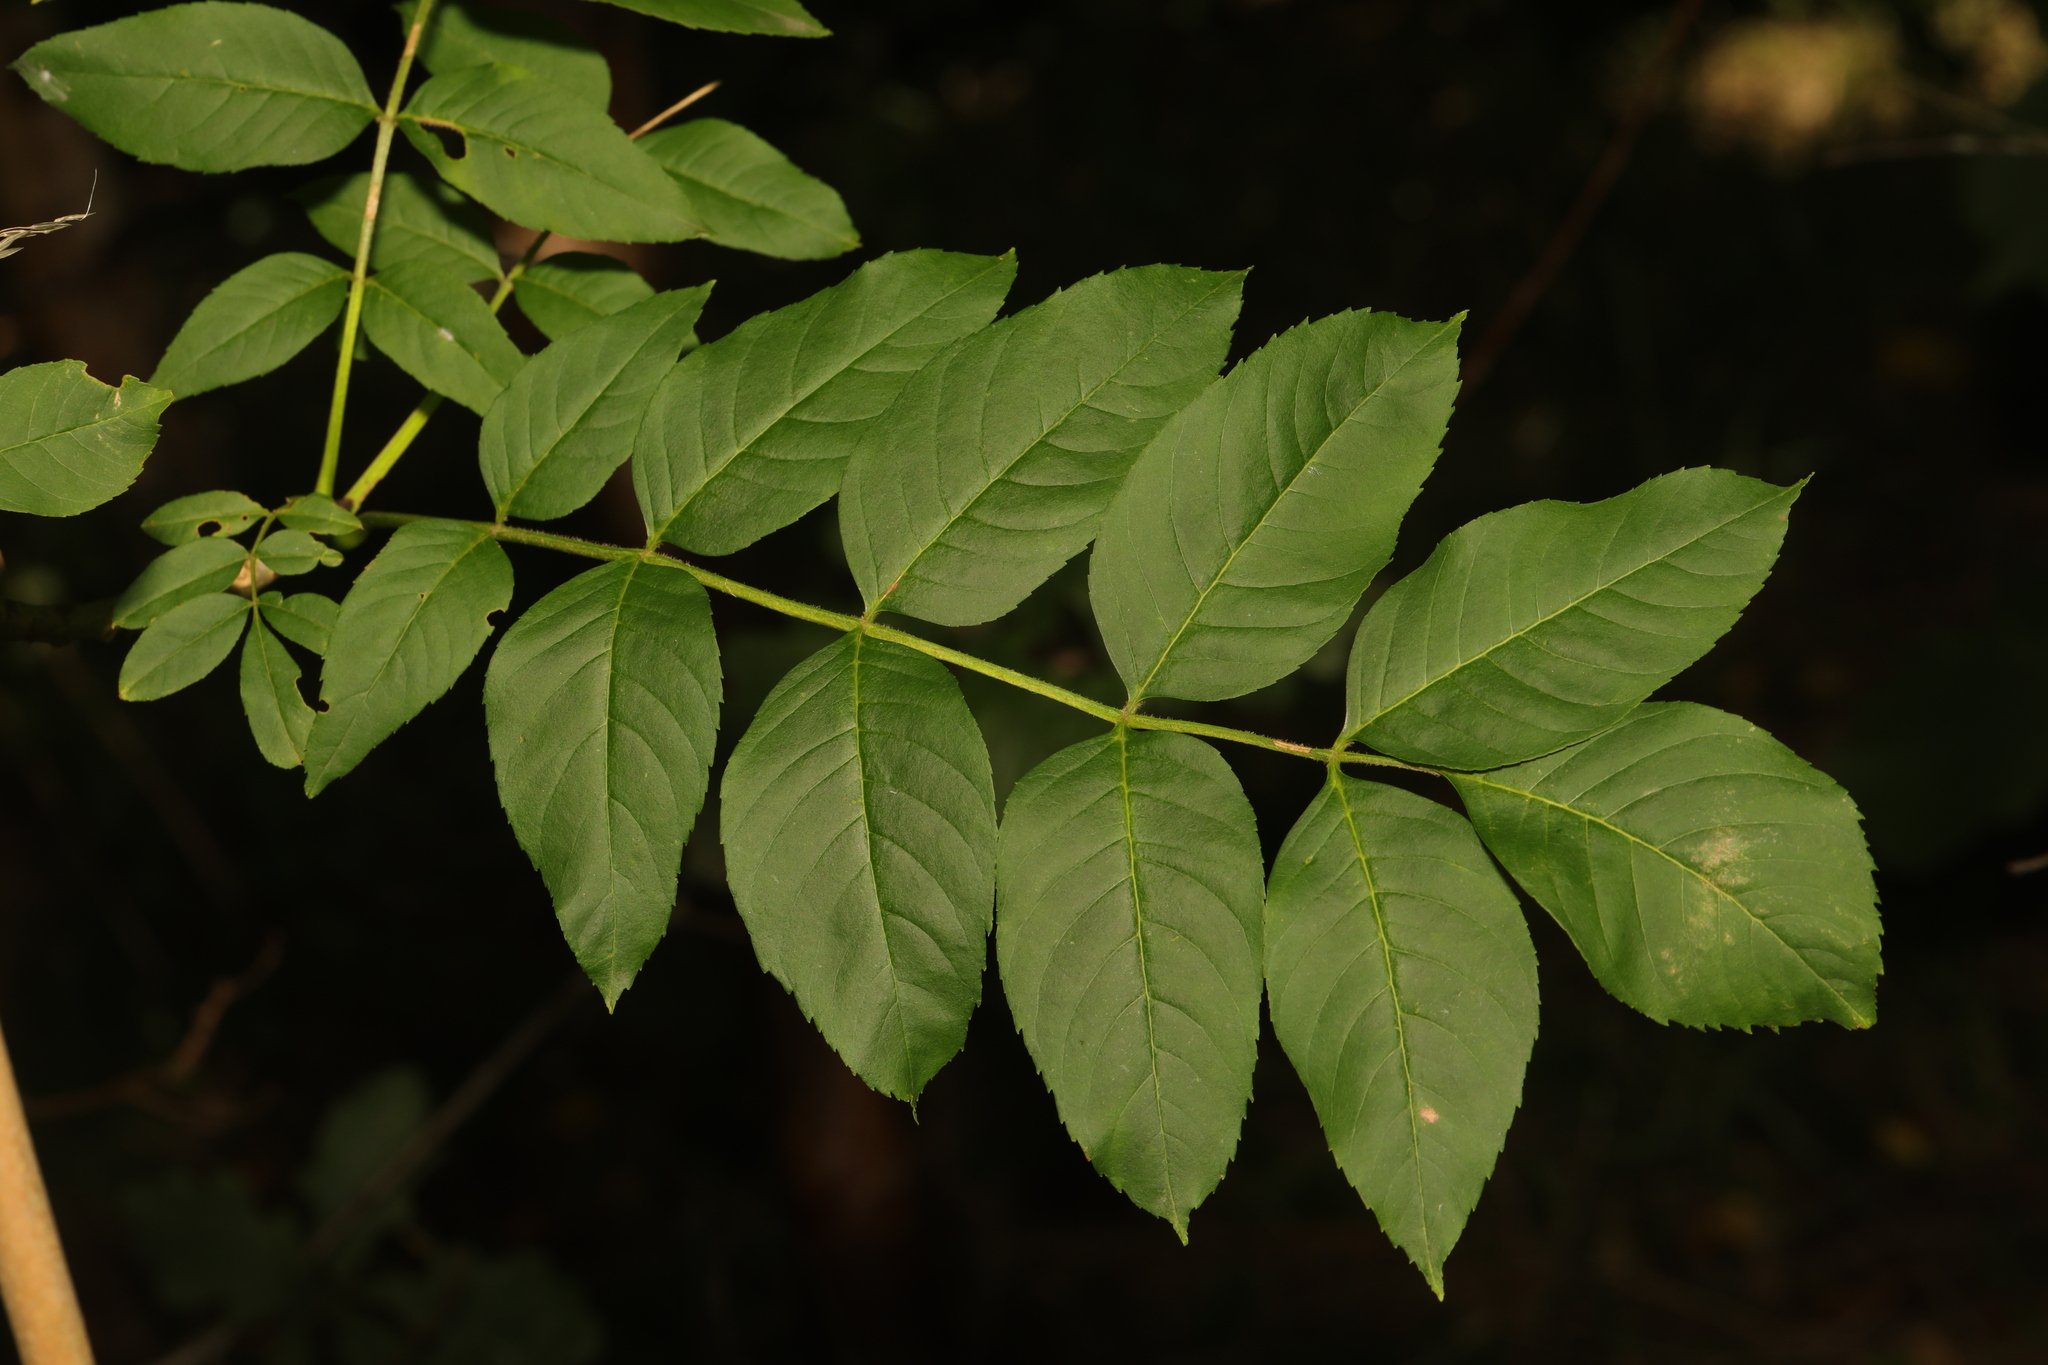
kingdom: Plantae
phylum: Tracheophyta
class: Magnoliopsida
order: Lamiales
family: Oleaceae
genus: Fraxinus
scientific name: Fraxinus excelsior
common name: European ash
